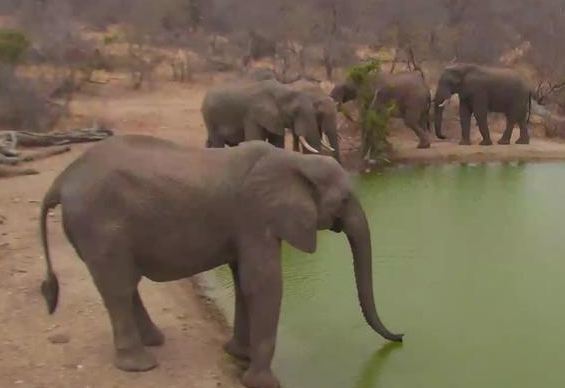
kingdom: Animalia
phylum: Chordata
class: Mammalia
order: Proboscidea
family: Elephantidae
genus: Loxodonta
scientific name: Loxodonta africana
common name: African elephant
